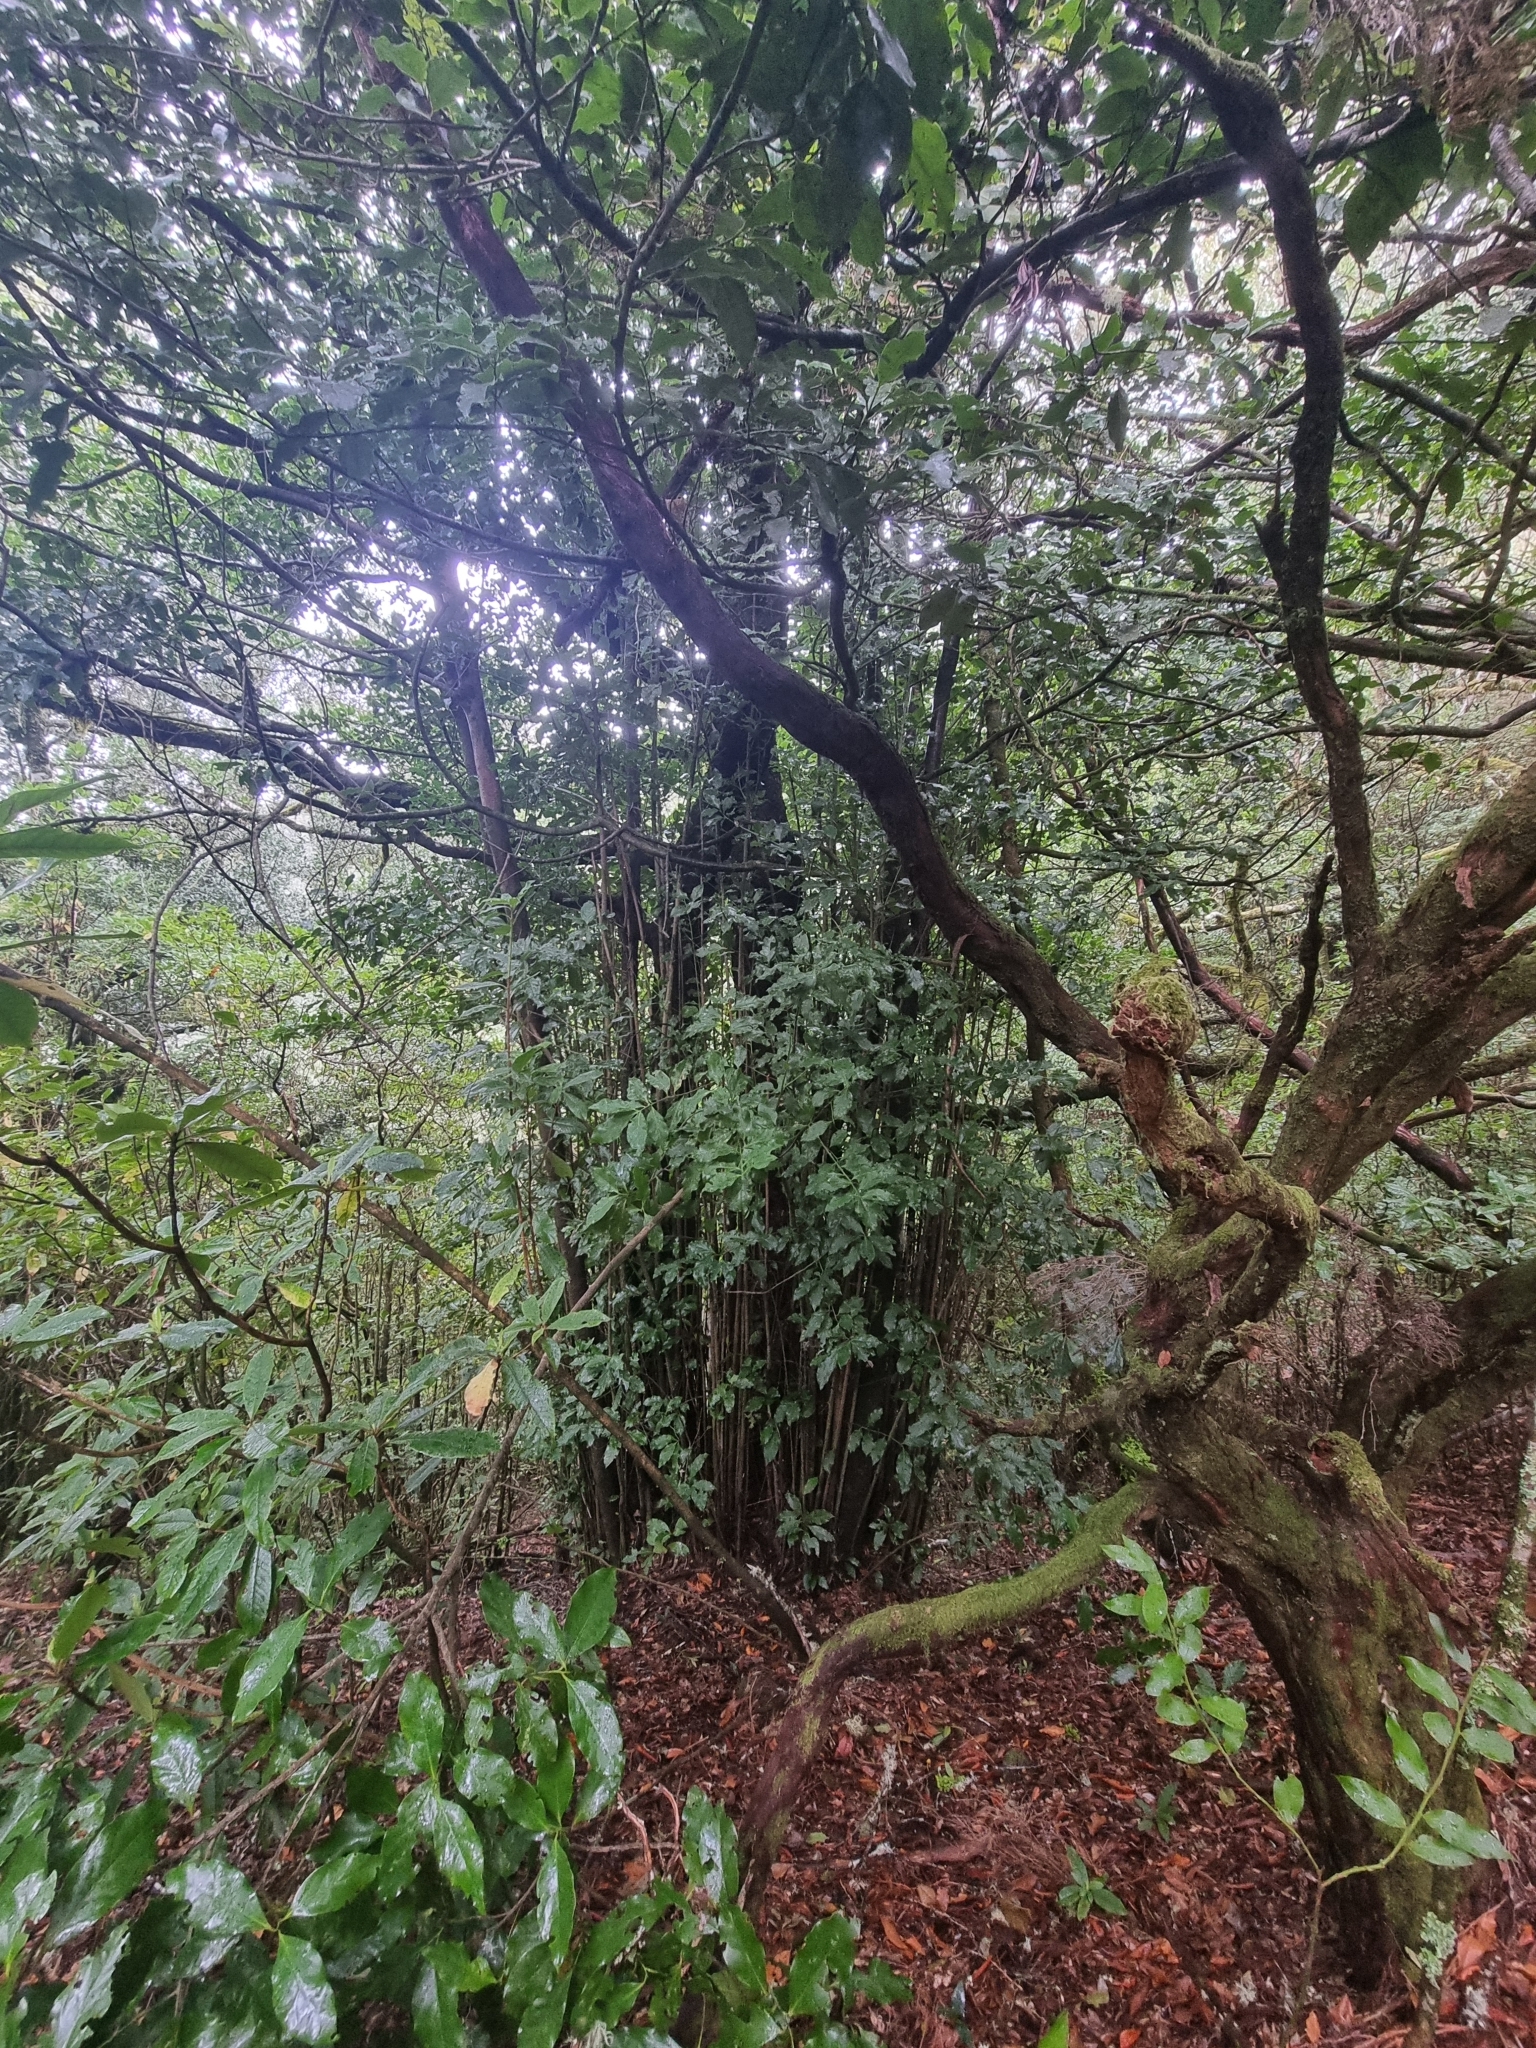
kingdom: Plantae
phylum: Tracheophyta
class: Magnoliopsida
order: Laurales
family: Lauraceae
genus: Mespilodaphne
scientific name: Mespilodaphne foetens
